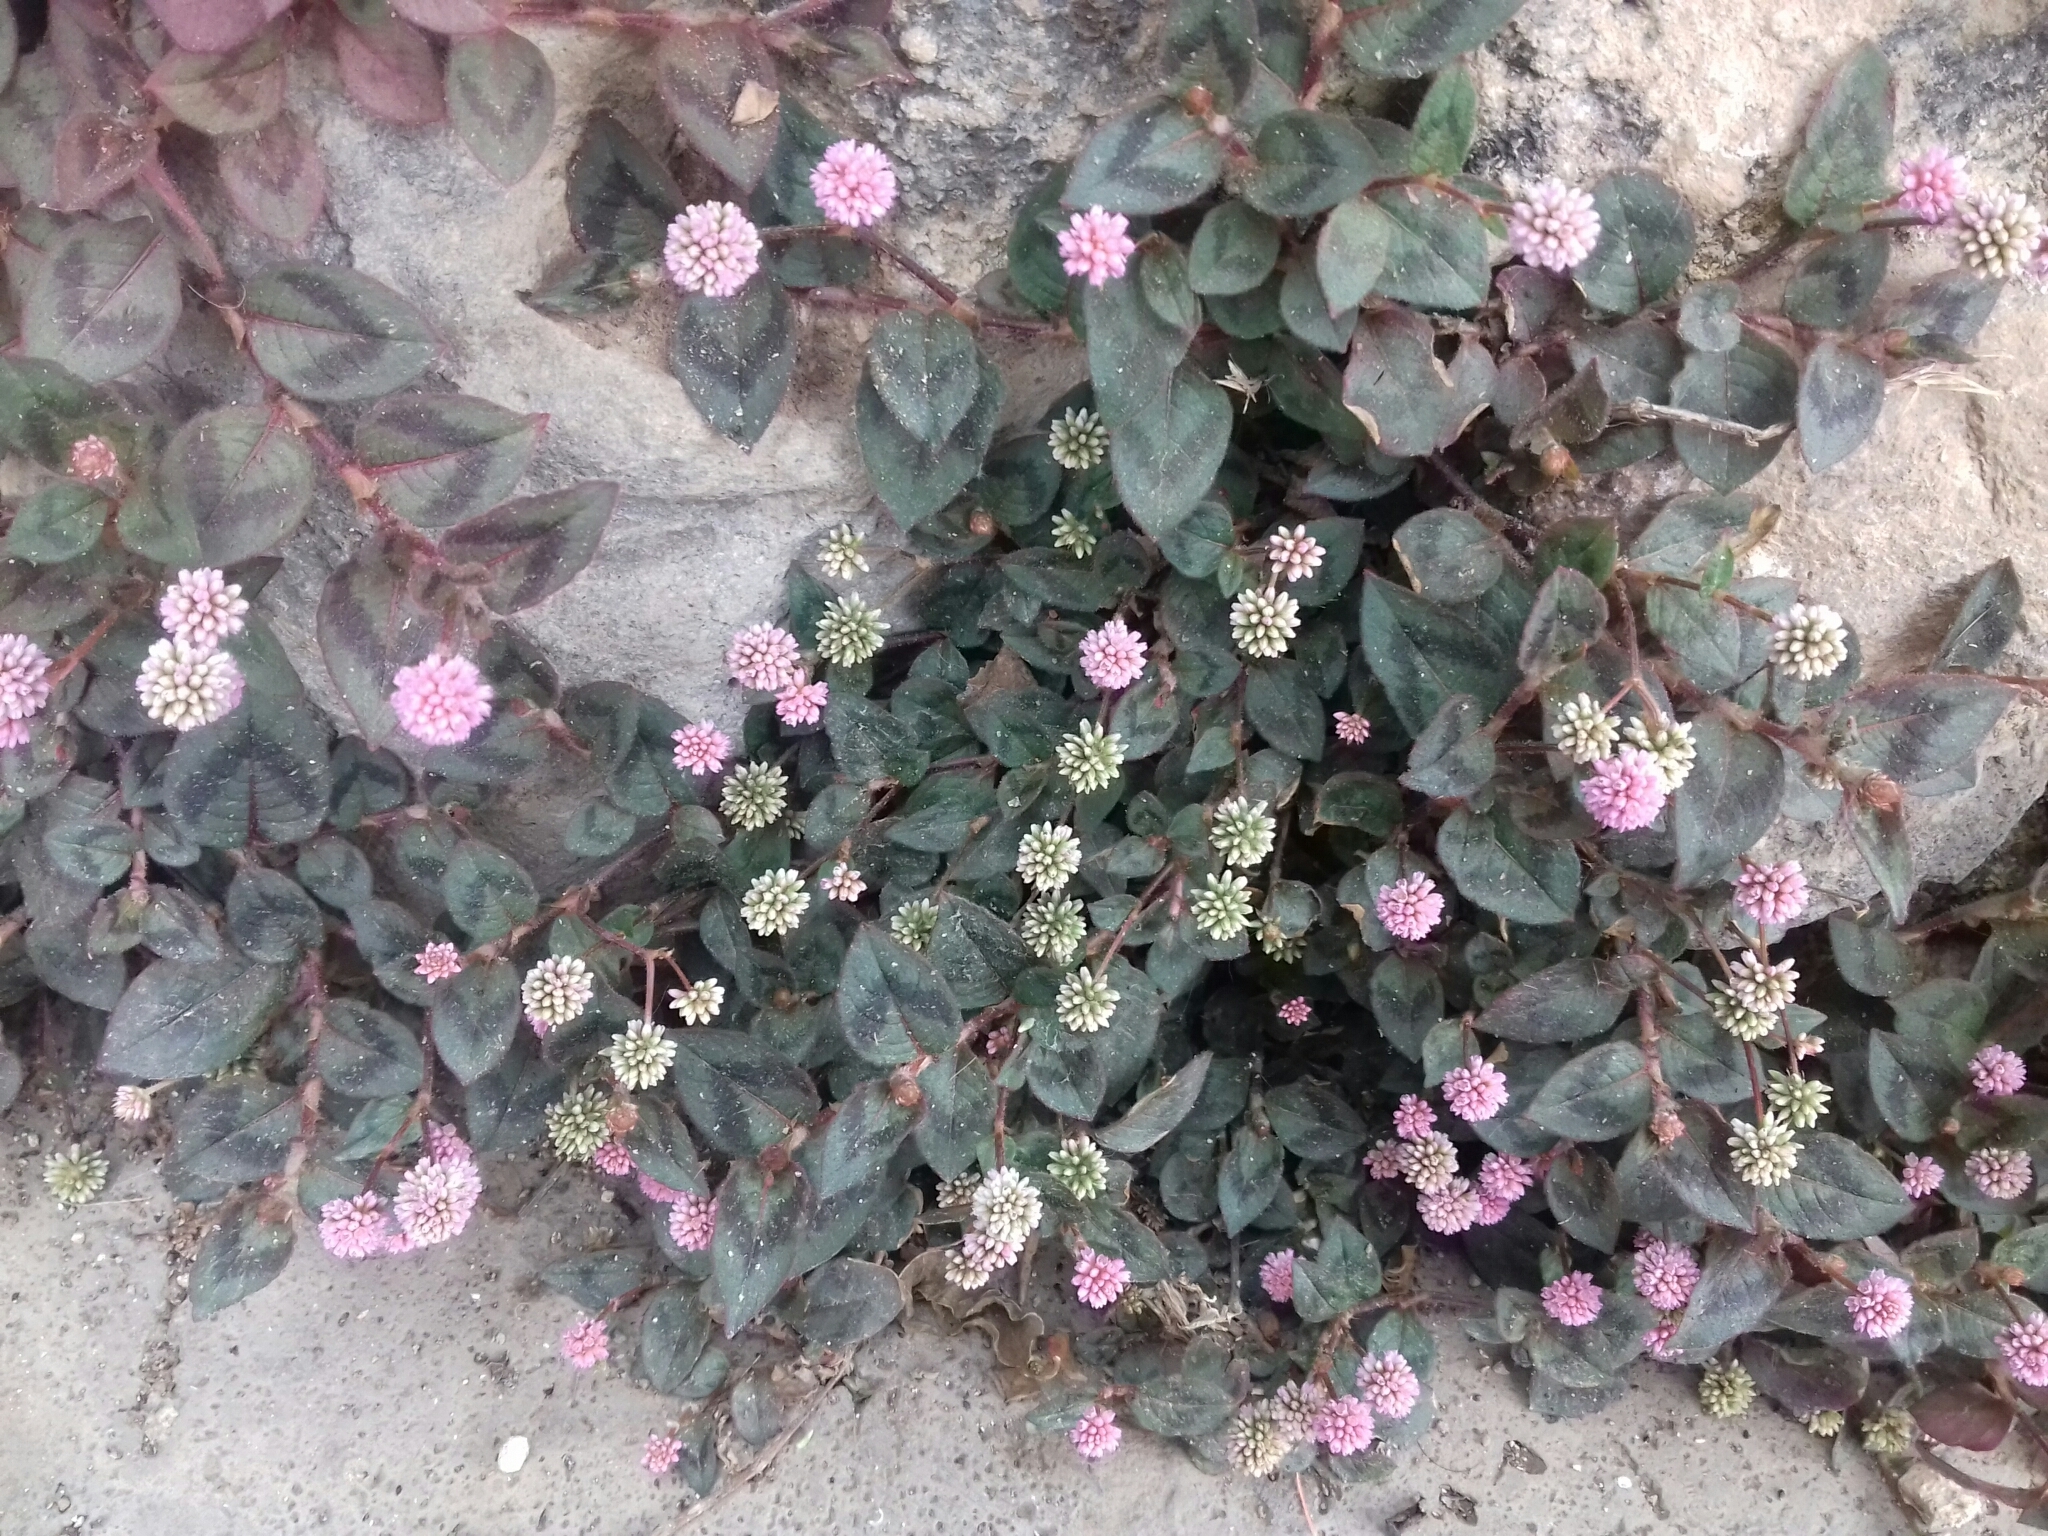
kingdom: Plantae
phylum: Tracheophyta
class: Magnoliopsida
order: Caryophyllales
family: Polygonaceae
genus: Persicaria
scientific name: Persicaria capitata
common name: Pinkhead smartweed
